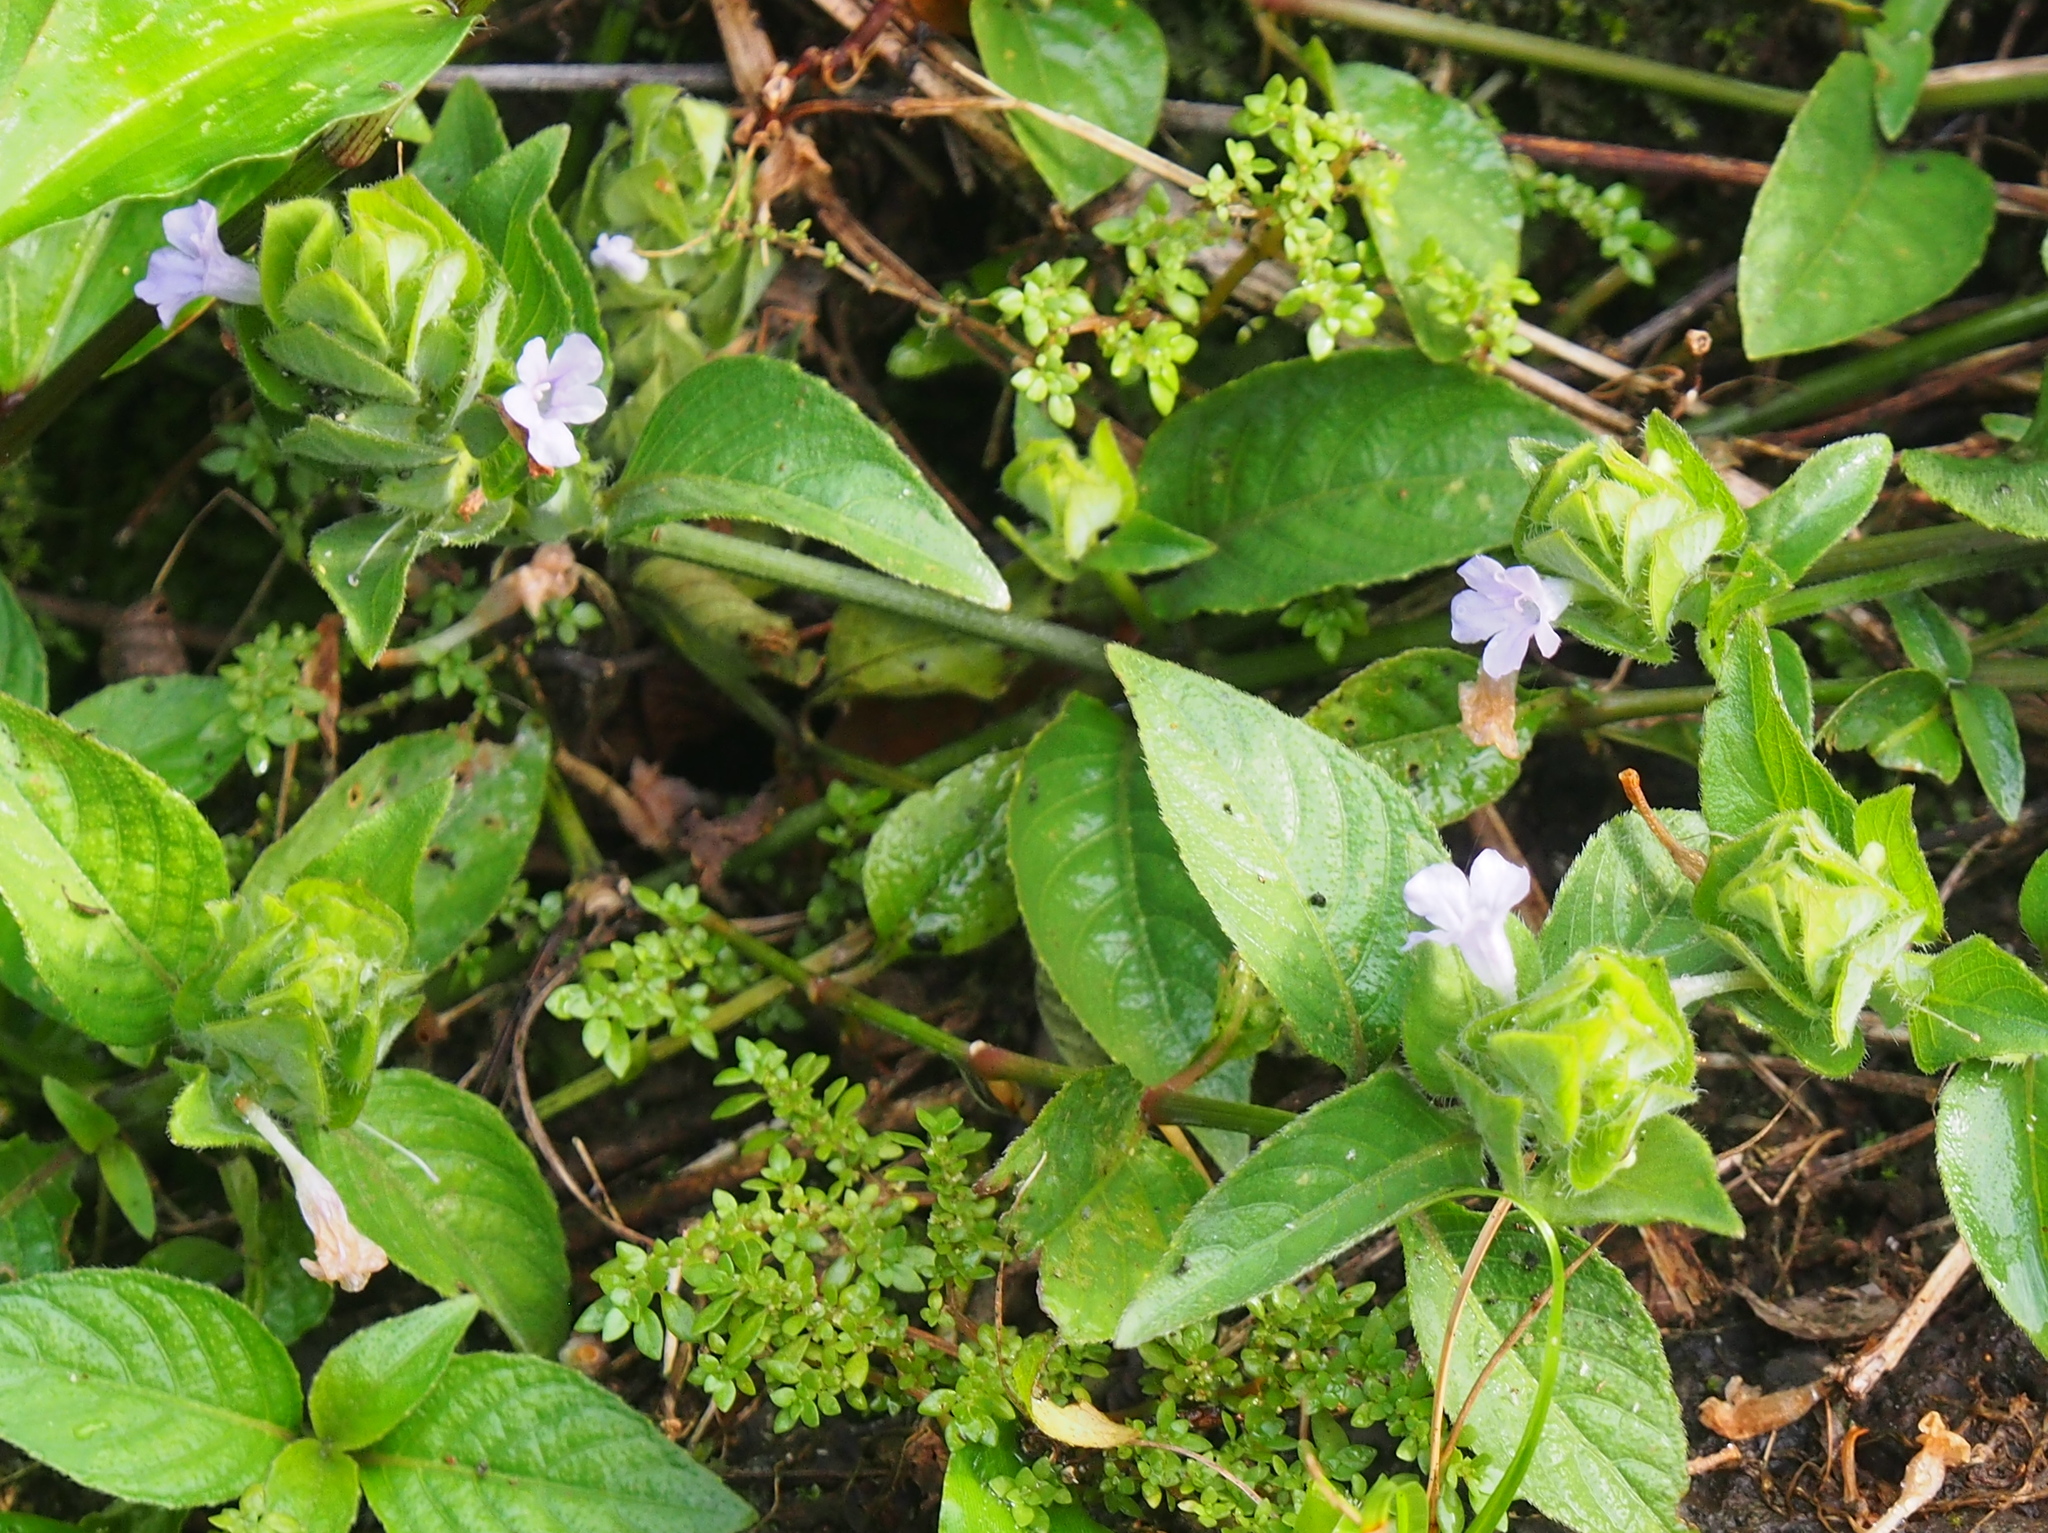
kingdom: Plantae
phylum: Tracheophyta
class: Magnoliopsida
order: Lamiales
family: Acanthaceae
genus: Ruellia
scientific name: Ruellia blechum
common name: Browne's blechum
